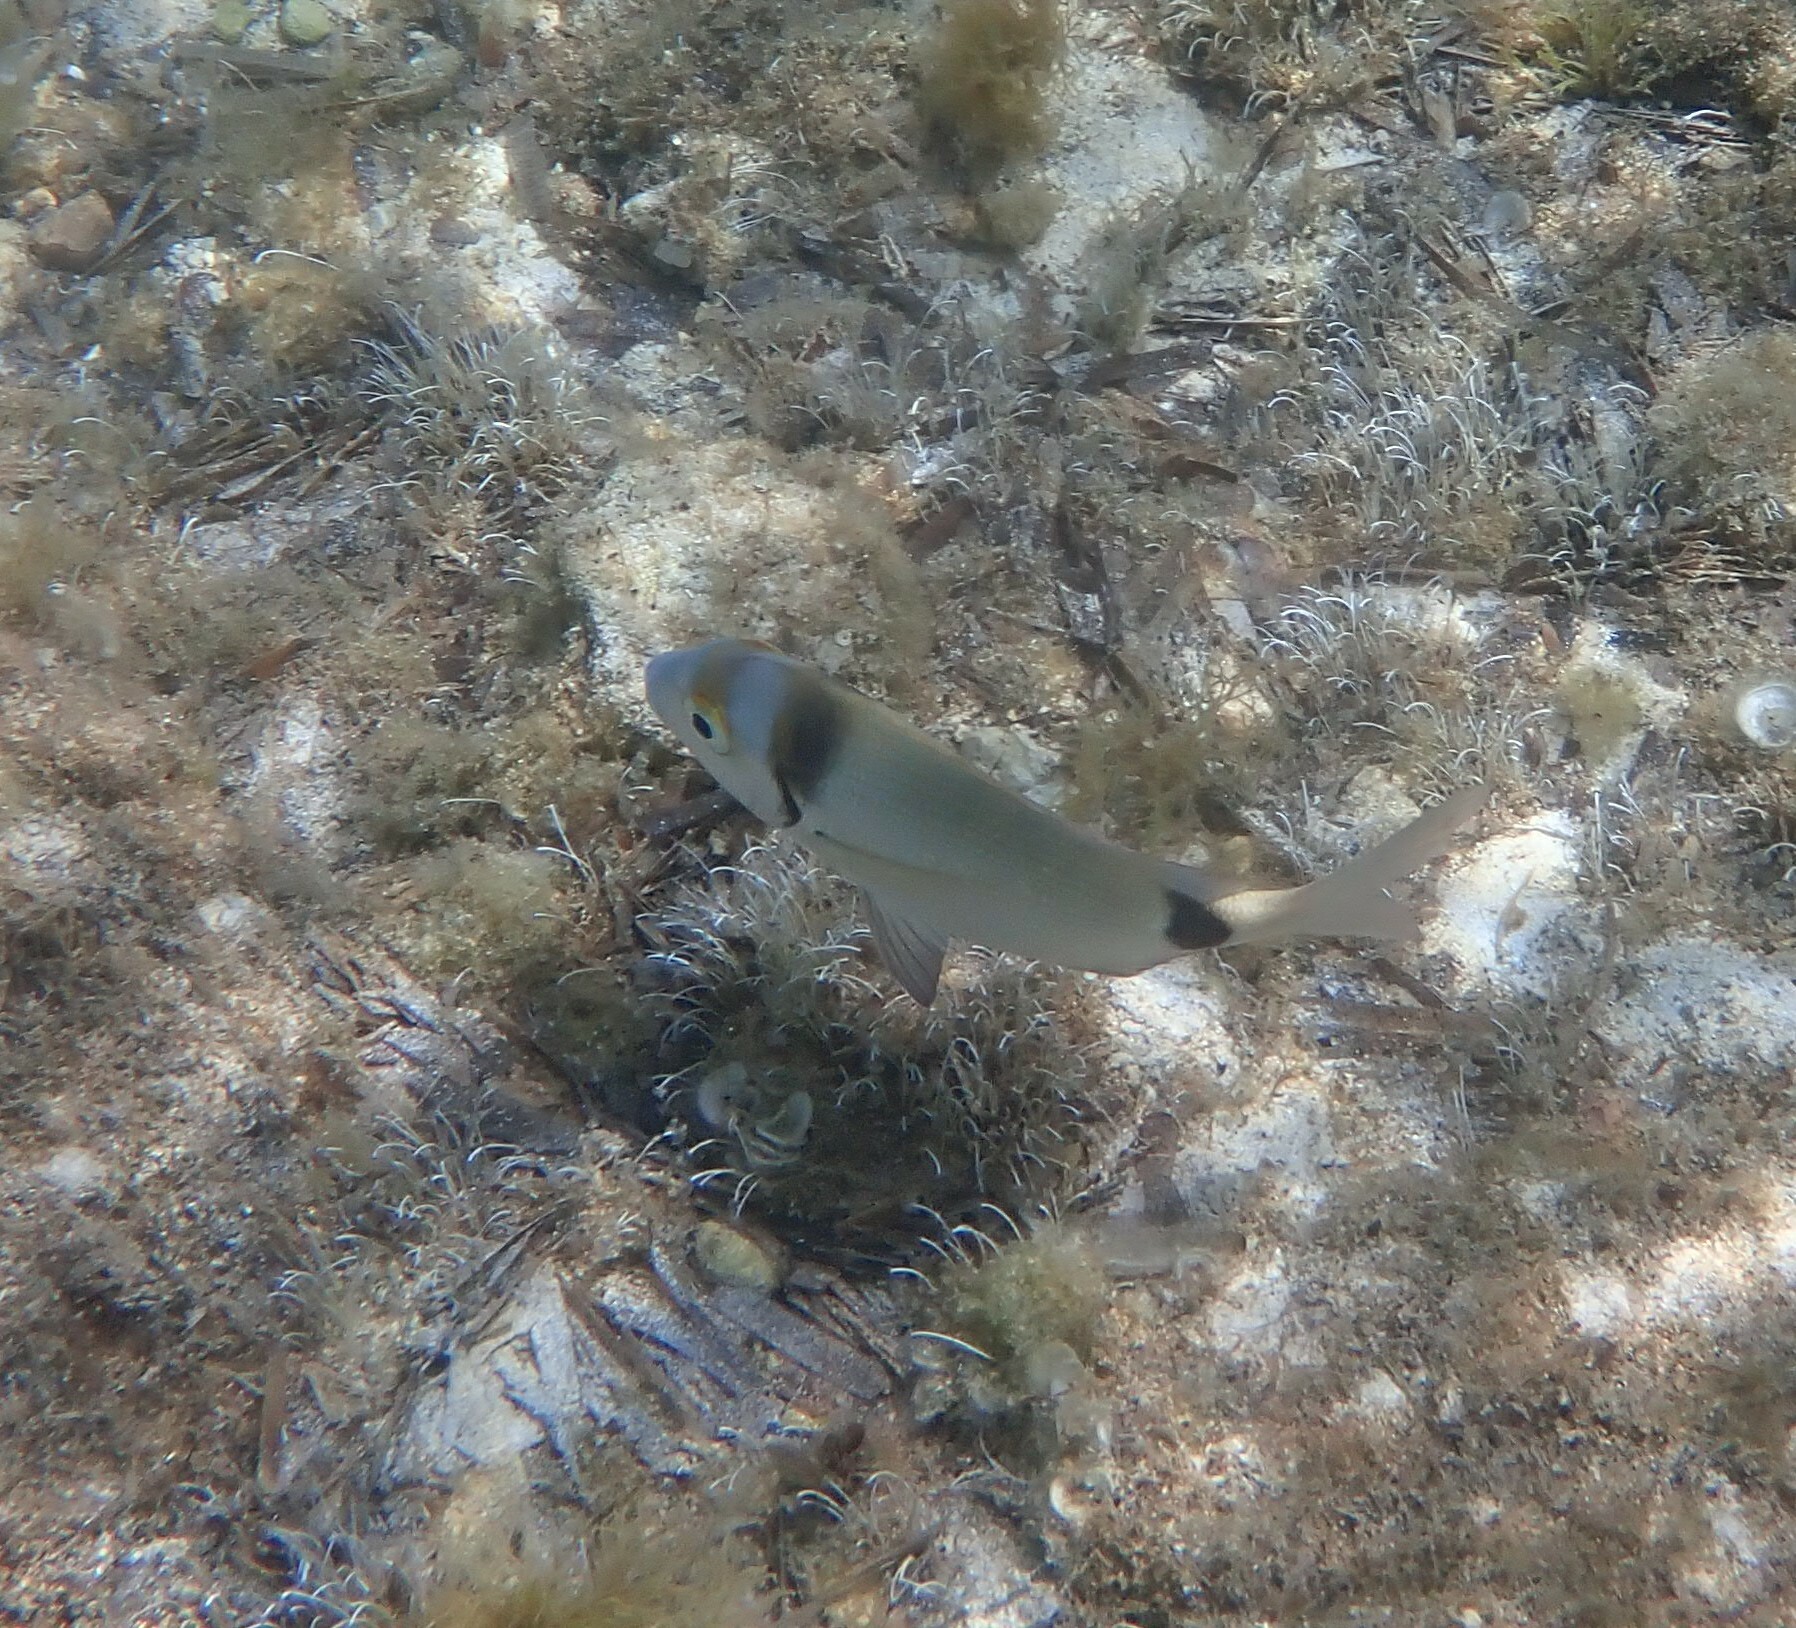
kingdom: Animalia
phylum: Chordata
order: Perciformes
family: Sparidae
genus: Diplodus
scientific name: Diplodus vulgaris
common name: Common two-banded seabream
